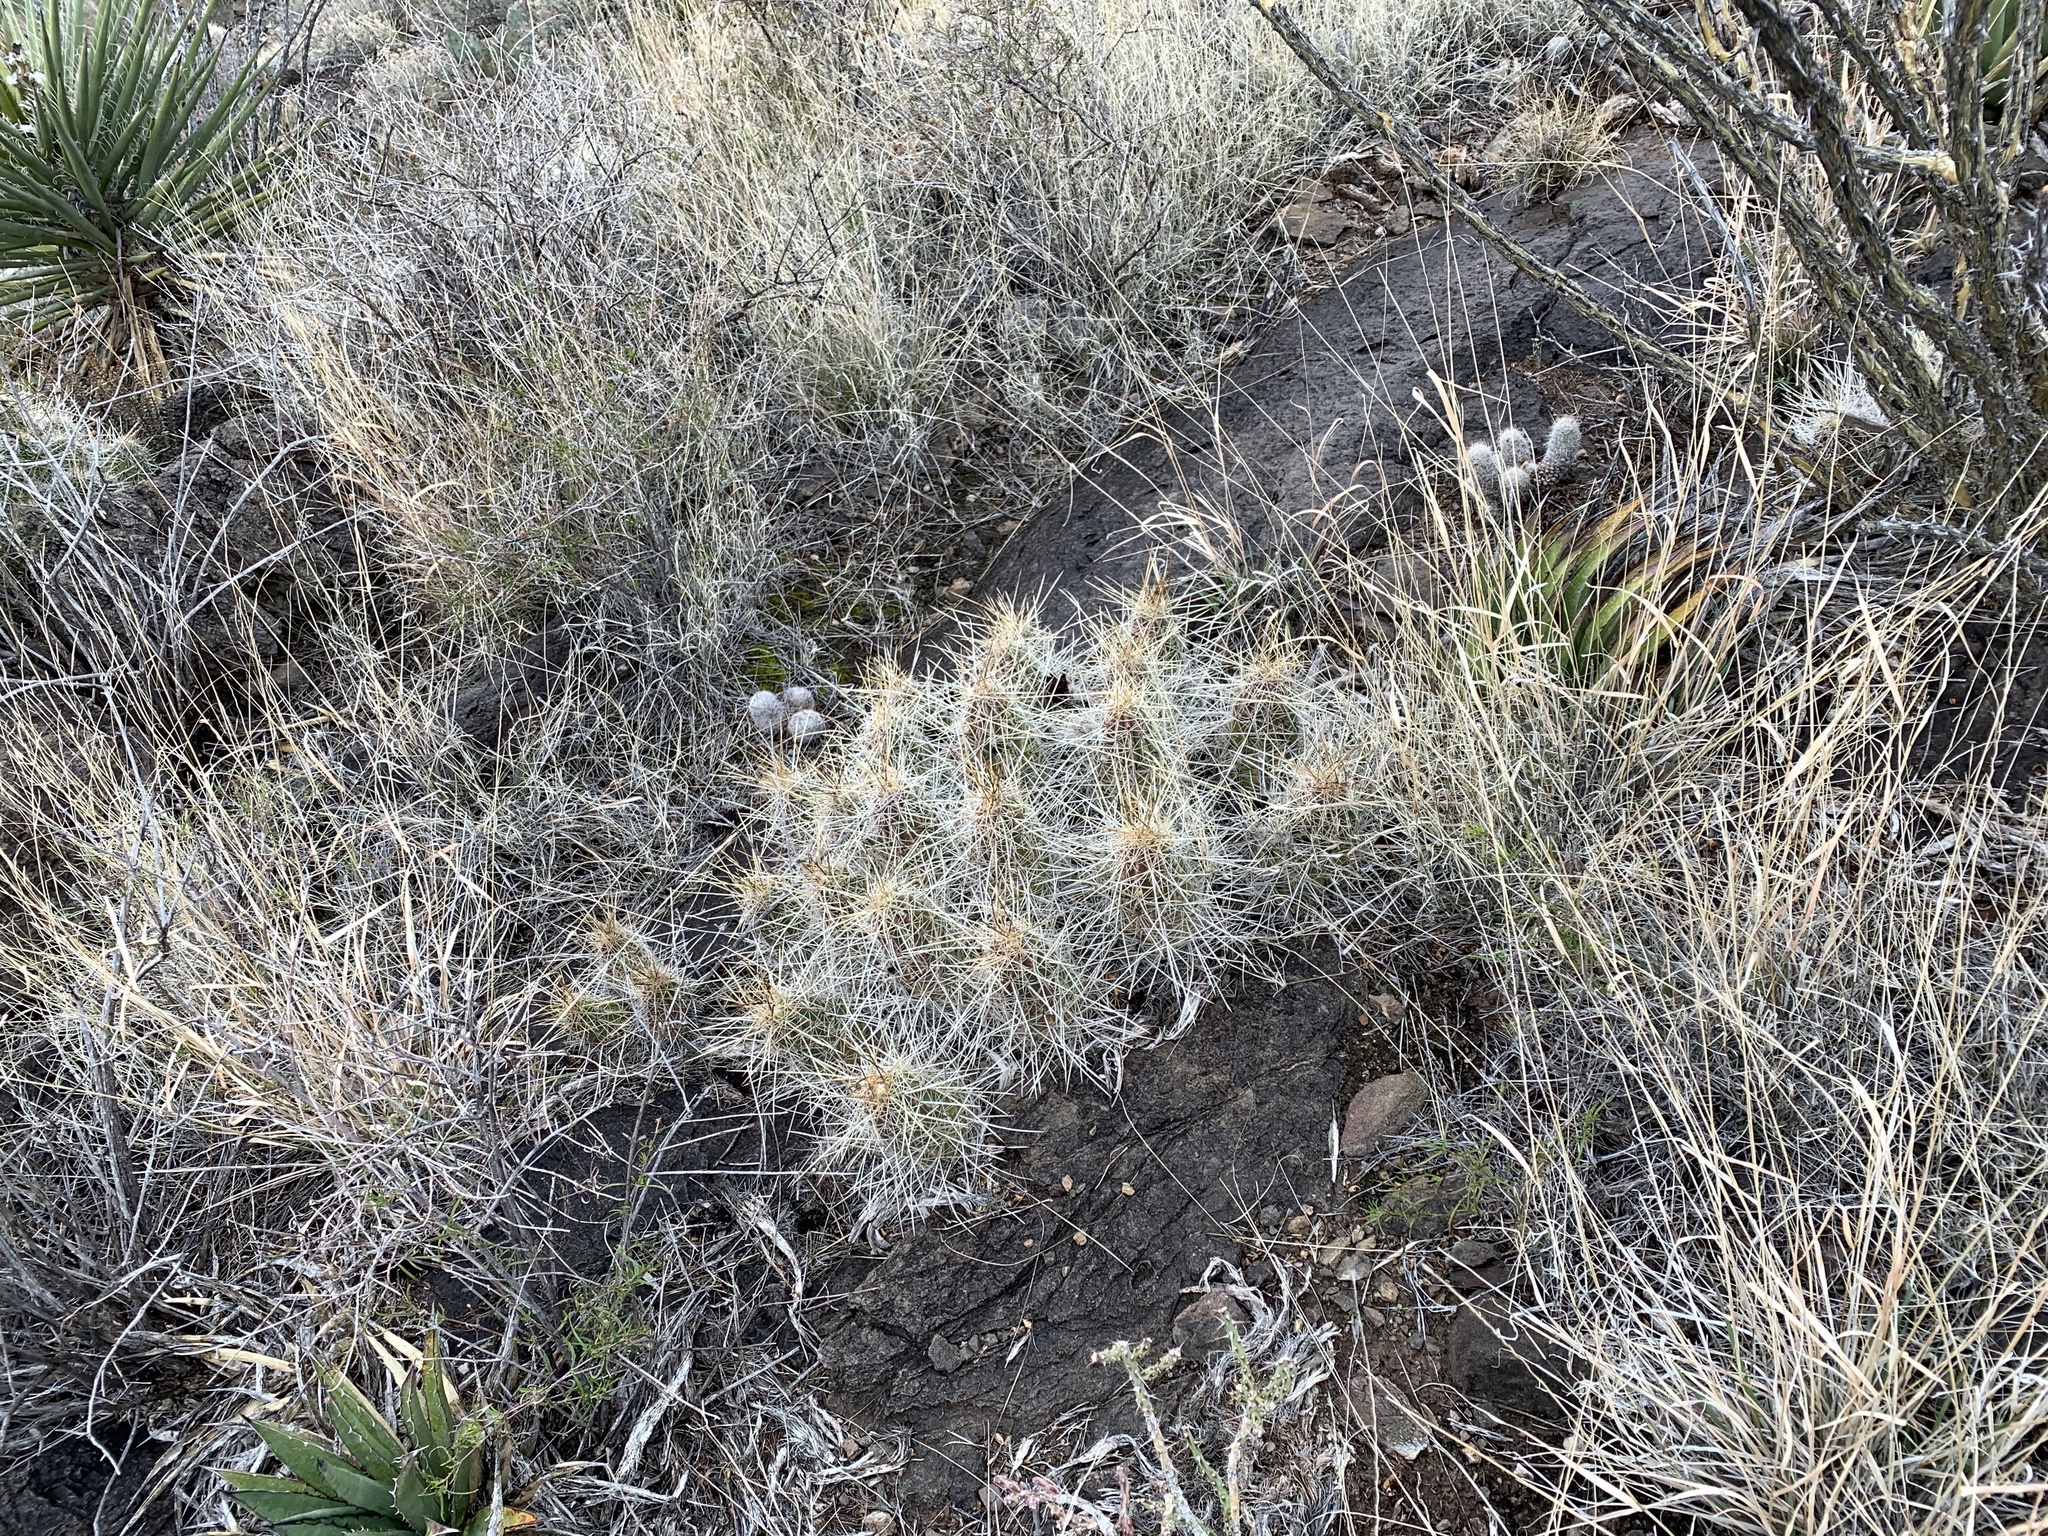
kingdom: Plantae
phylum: Tracheophyta
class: Magnoliopsida
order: Caryophyllales
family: Cactaceae
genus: Echinocereus
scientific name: Echinocereus stramineus
